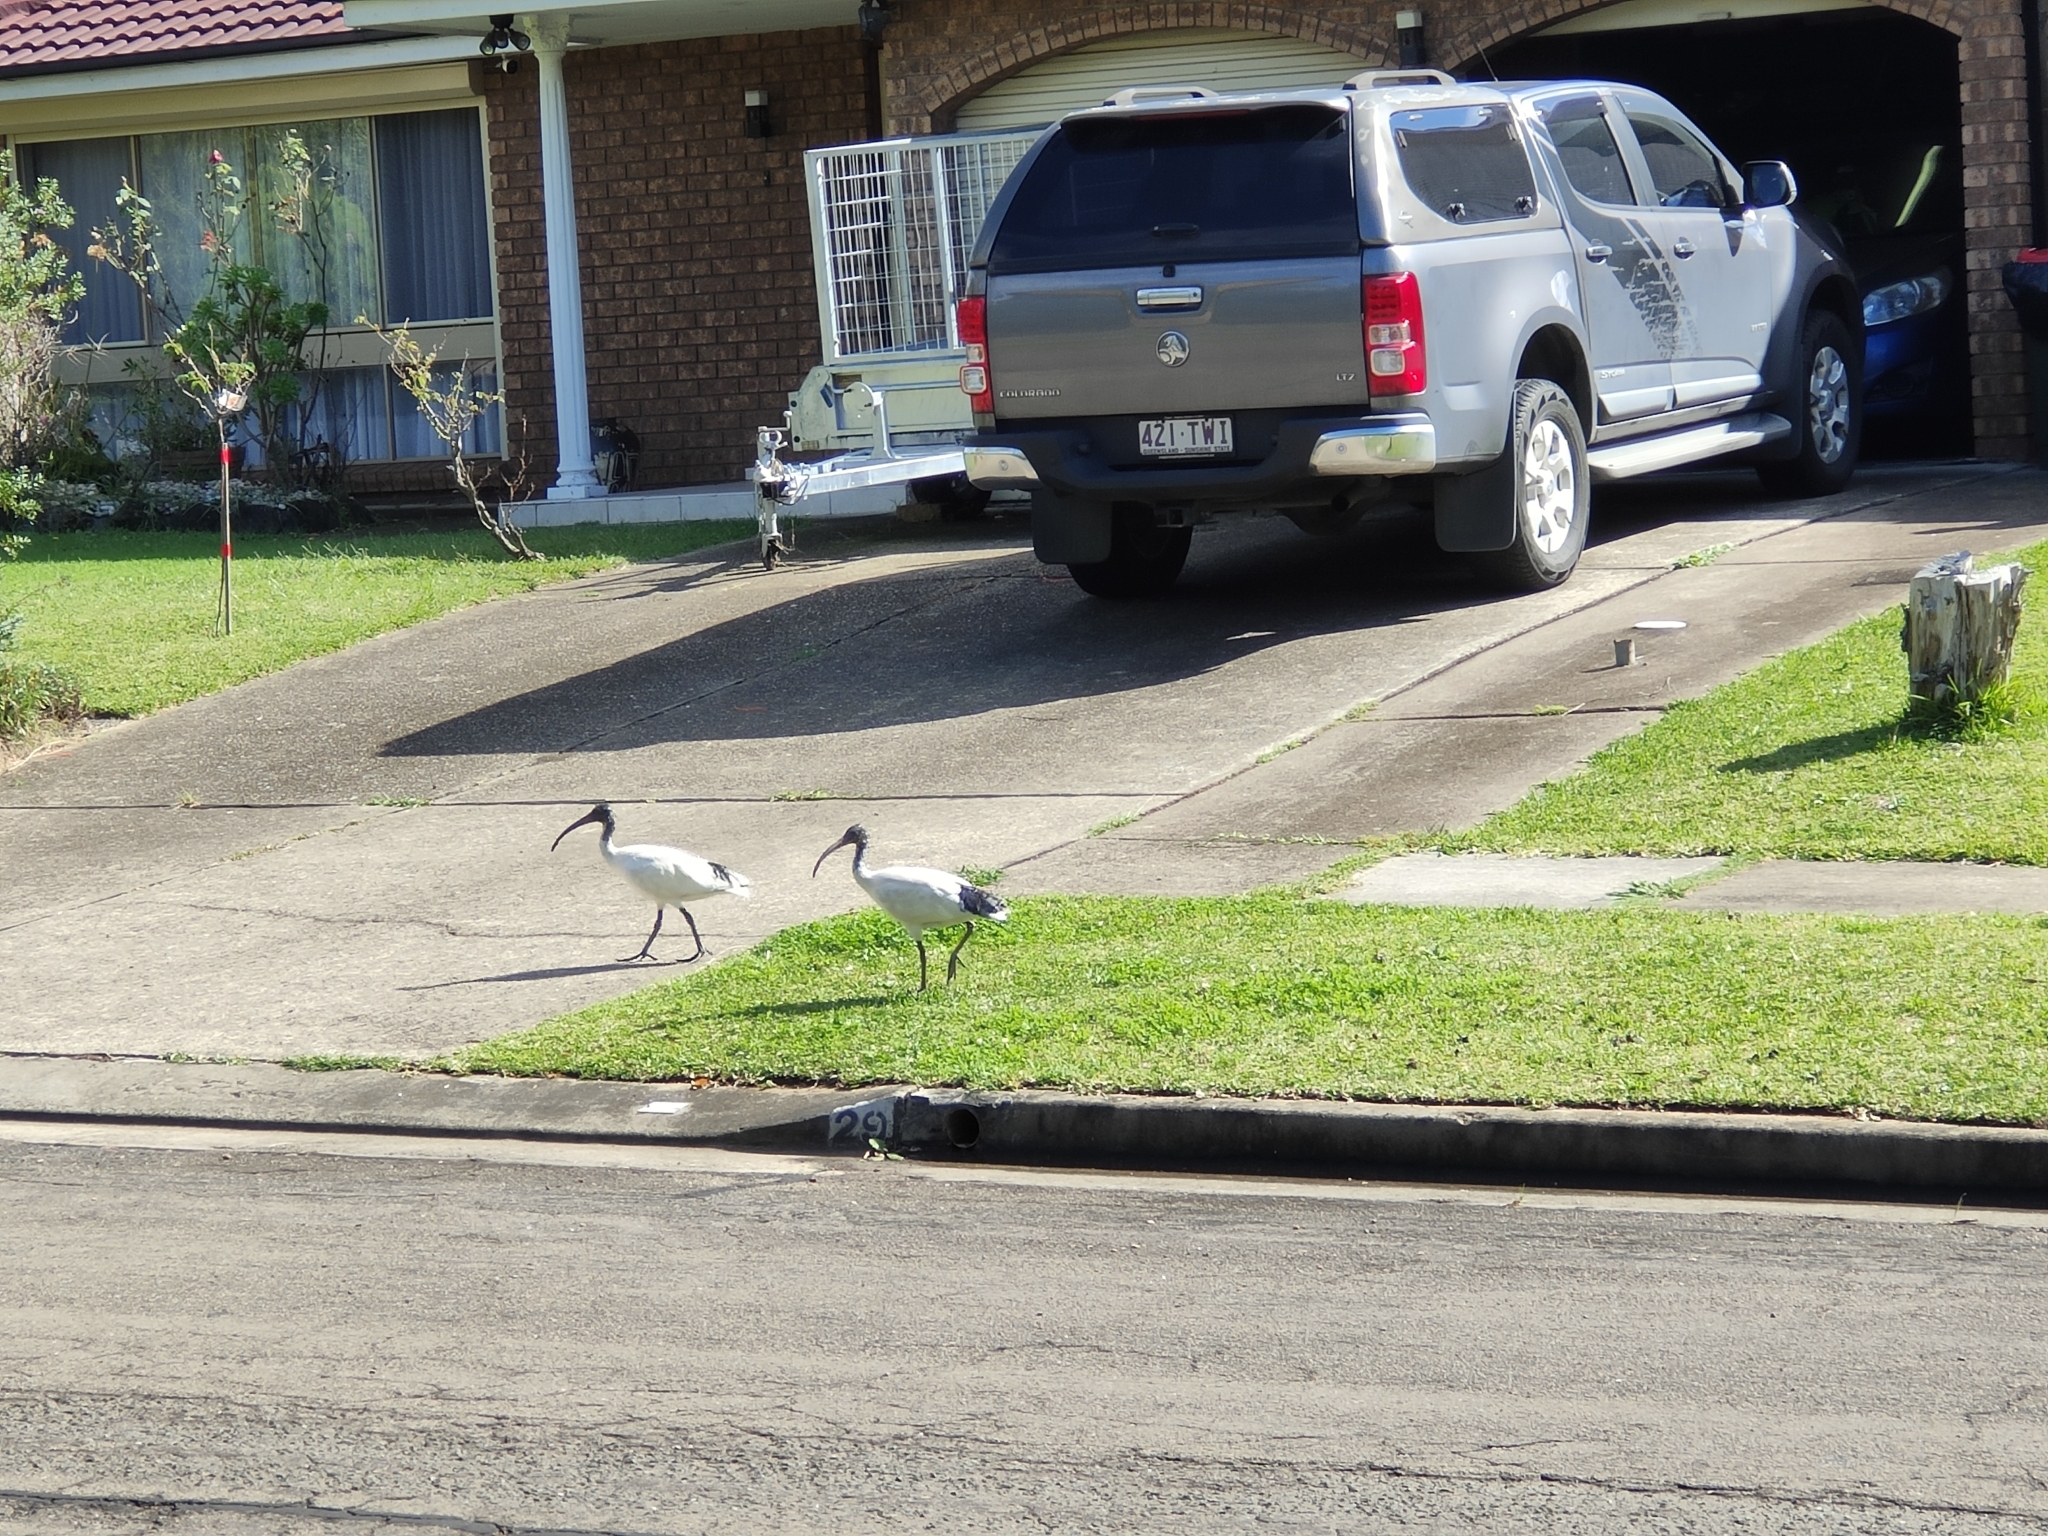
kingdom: Animalia
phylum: Chordata
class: Aves
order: Pelecaniformes
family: Threskiornithidae
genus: Threskiornis
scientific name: Threskiornis molucca
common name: Australian white ibis
